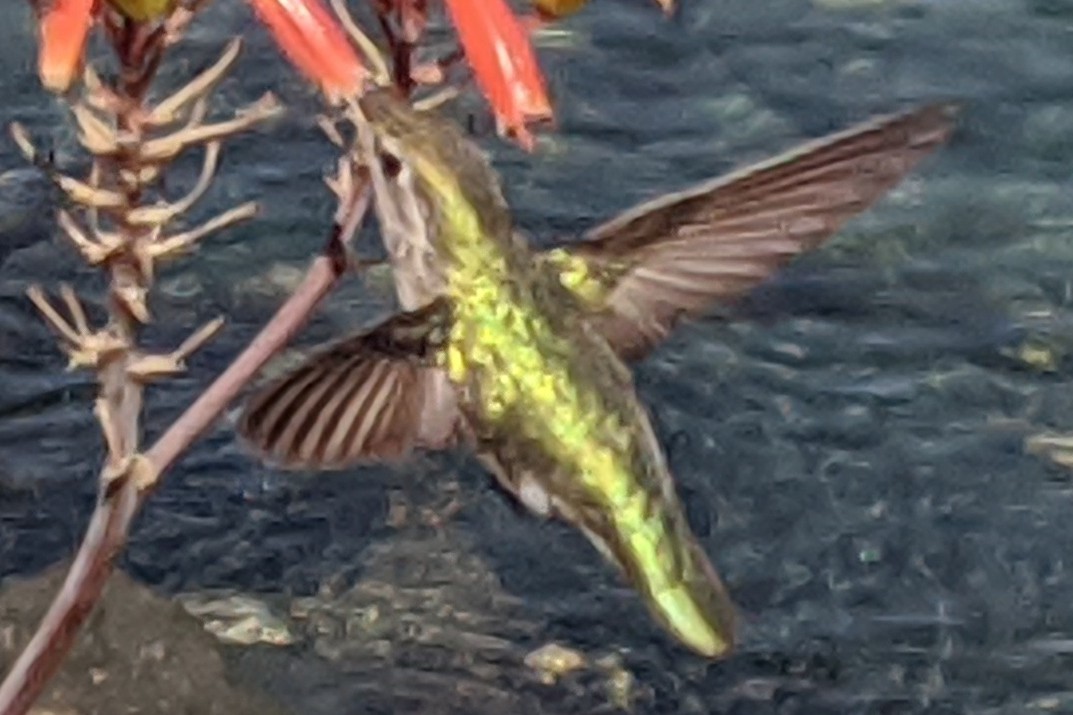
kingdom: Animalia
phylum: Chordata
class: Aves
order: Apodiformes
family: Trochilidae
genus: Calypte
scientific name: Calypte anna
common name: Anna's hummingbird
